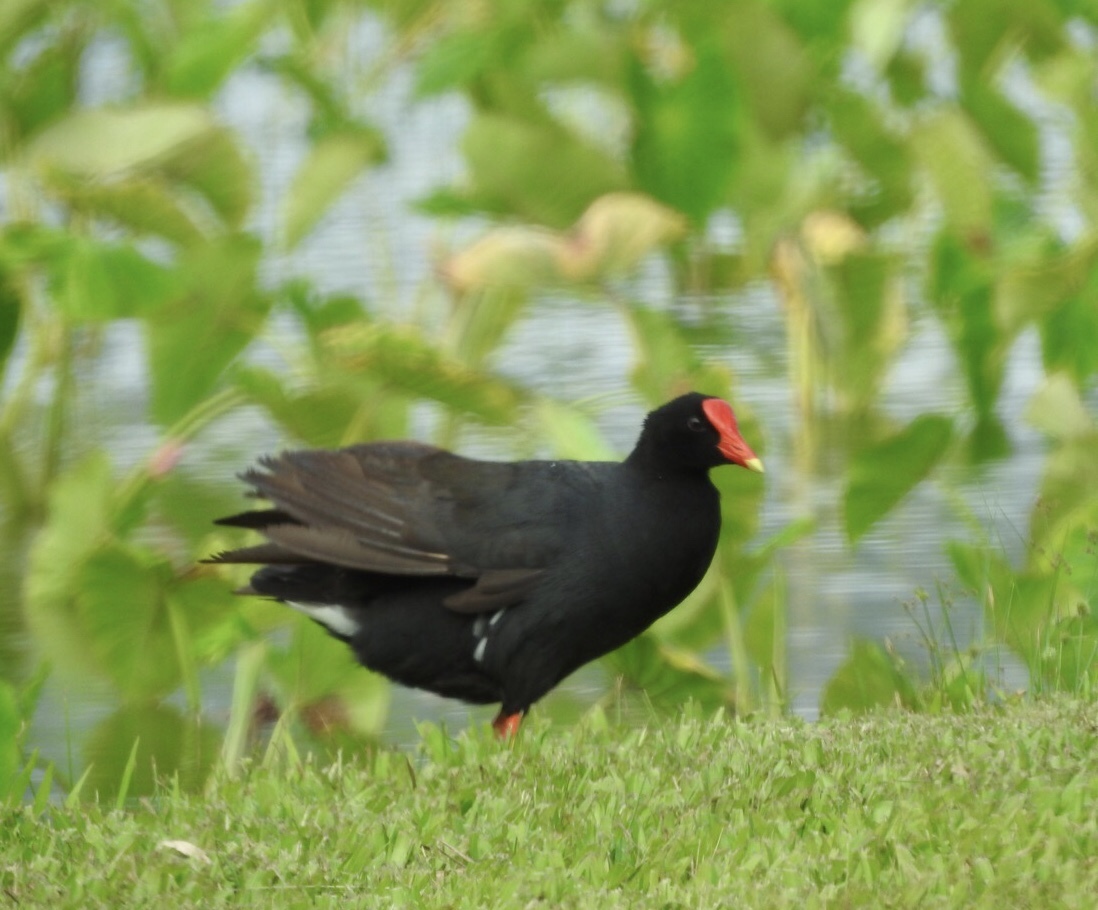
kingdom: Animalia
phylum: Chordata
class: Aves
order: Gruiformes
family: Rallidae
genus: Gallinula
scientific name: Gallinula chloropus
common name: Common moorhen
